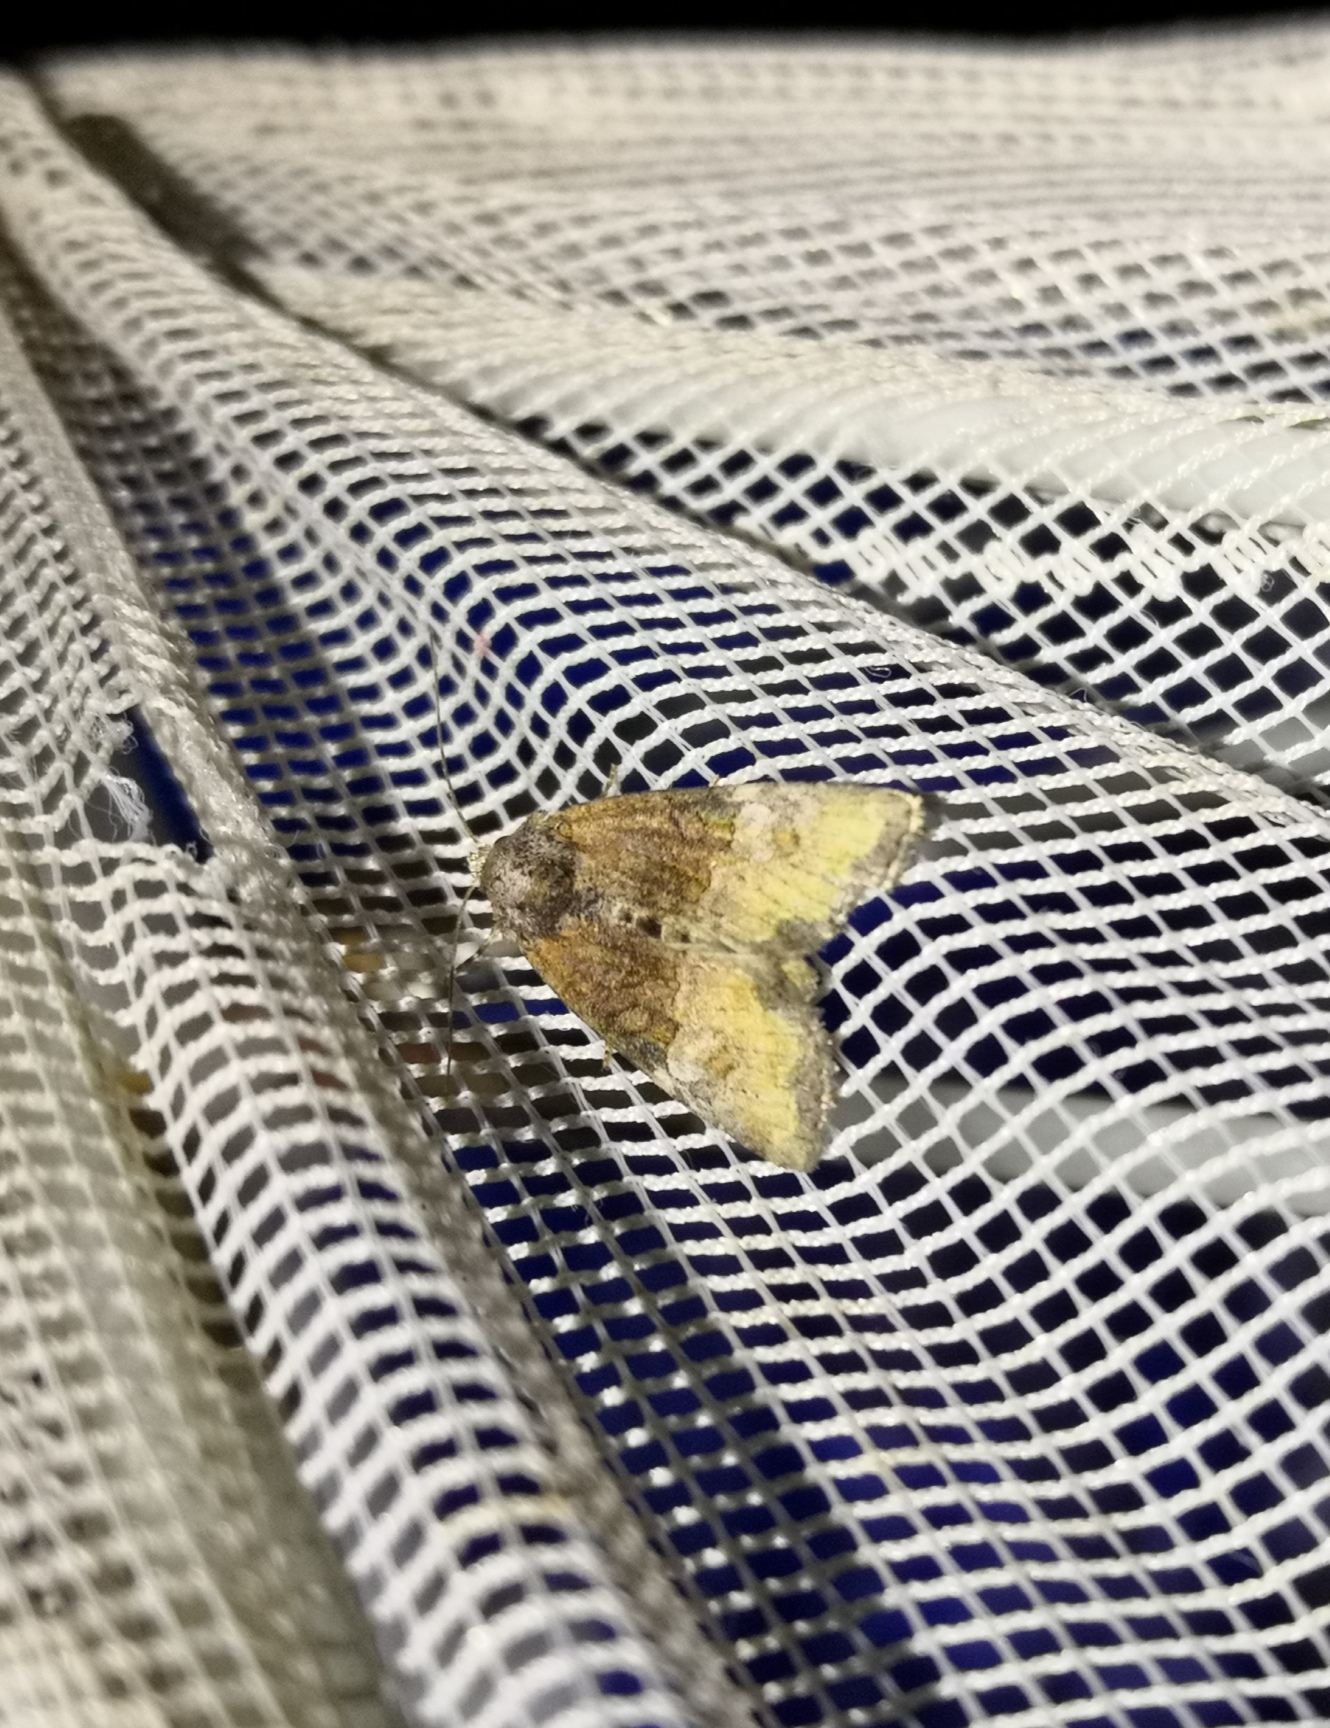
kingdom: Animalia
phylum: Arthropoda
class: Insecta
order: Lepidoptera
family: Noctuidae
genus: Mesoligia
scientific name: Mesoligia furuncula
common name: Cloaked minor
